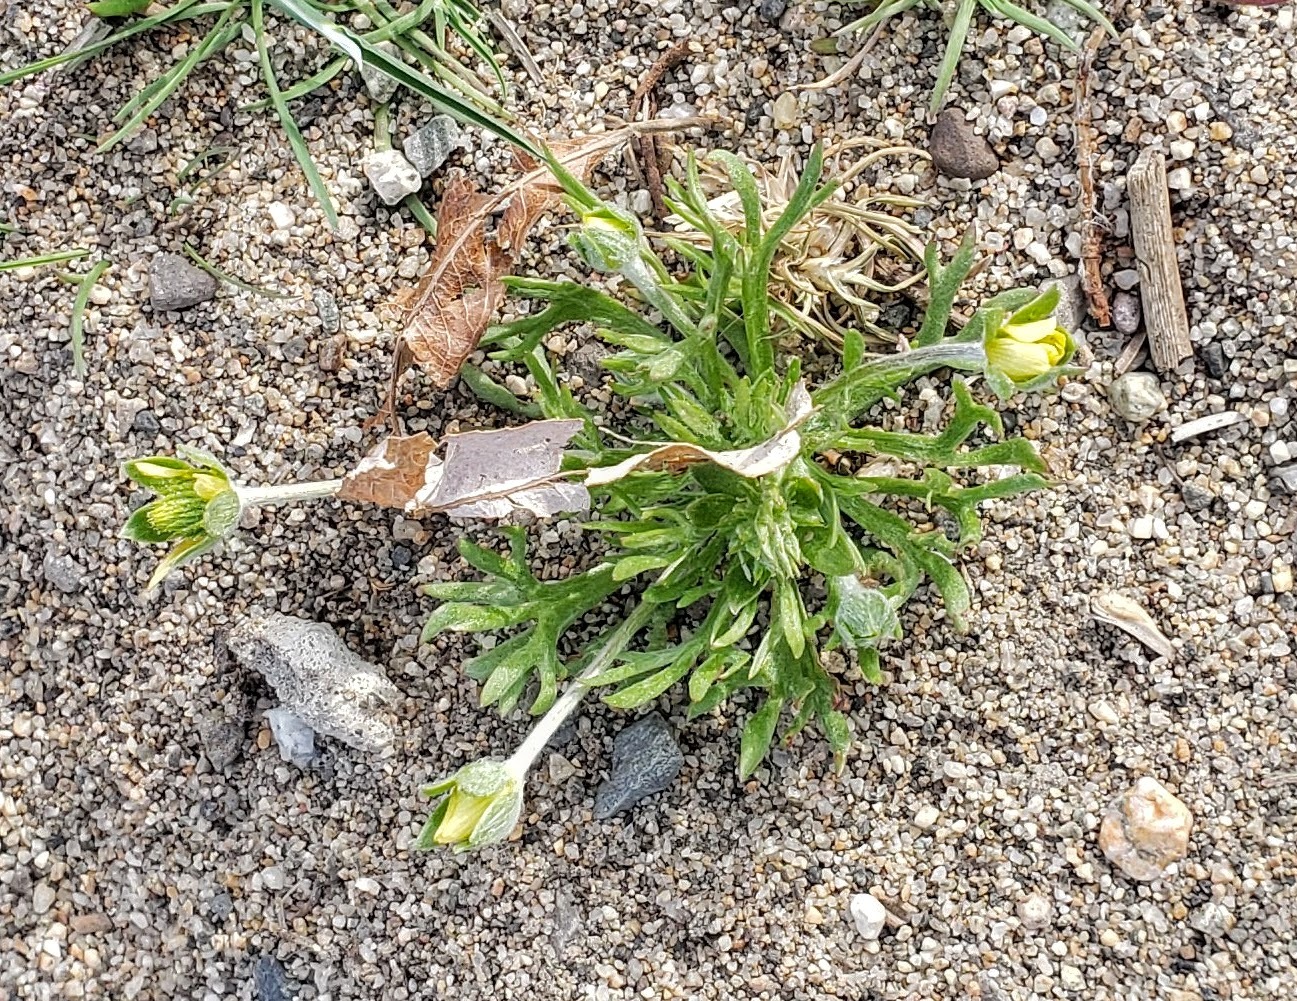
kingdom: Plantae
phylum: Tracheophyta
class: Magnoliopsida
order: Ranunculales
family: Ranunculaceae
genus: Ceratocephala
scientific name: Ceratocephala orthoceras
